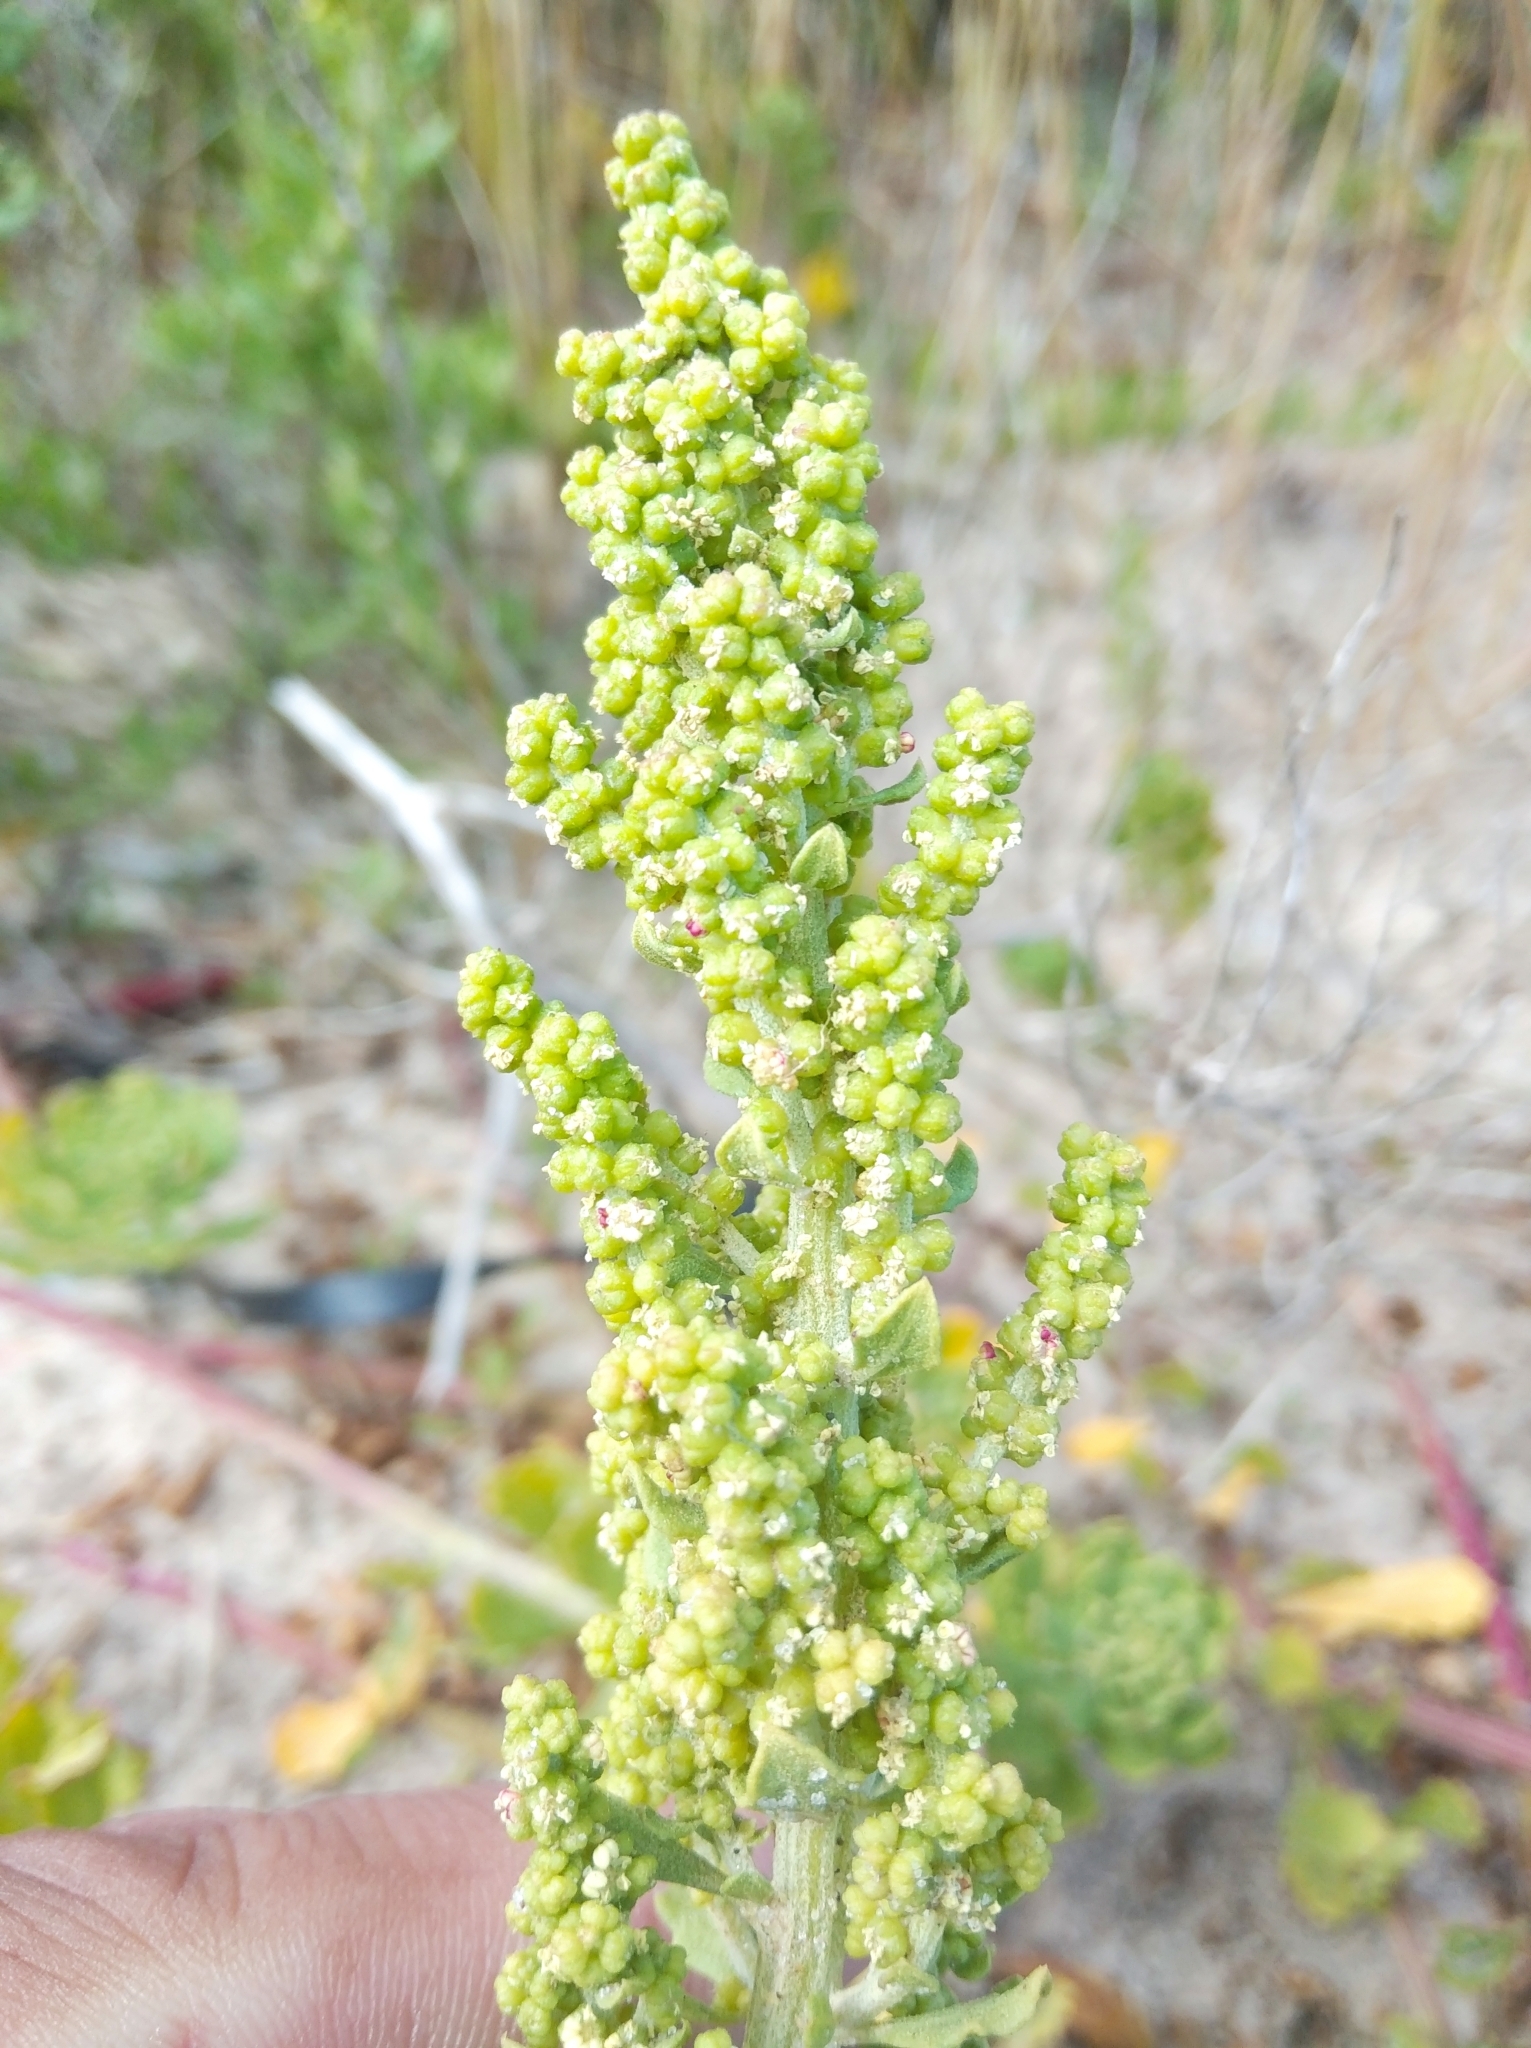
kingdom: Plantae
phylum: Tracheophyta
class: Magnoliopsida
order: Caryophyllales
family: Amaranthaceae
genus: Dysphania
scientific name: Dysphania retusa
